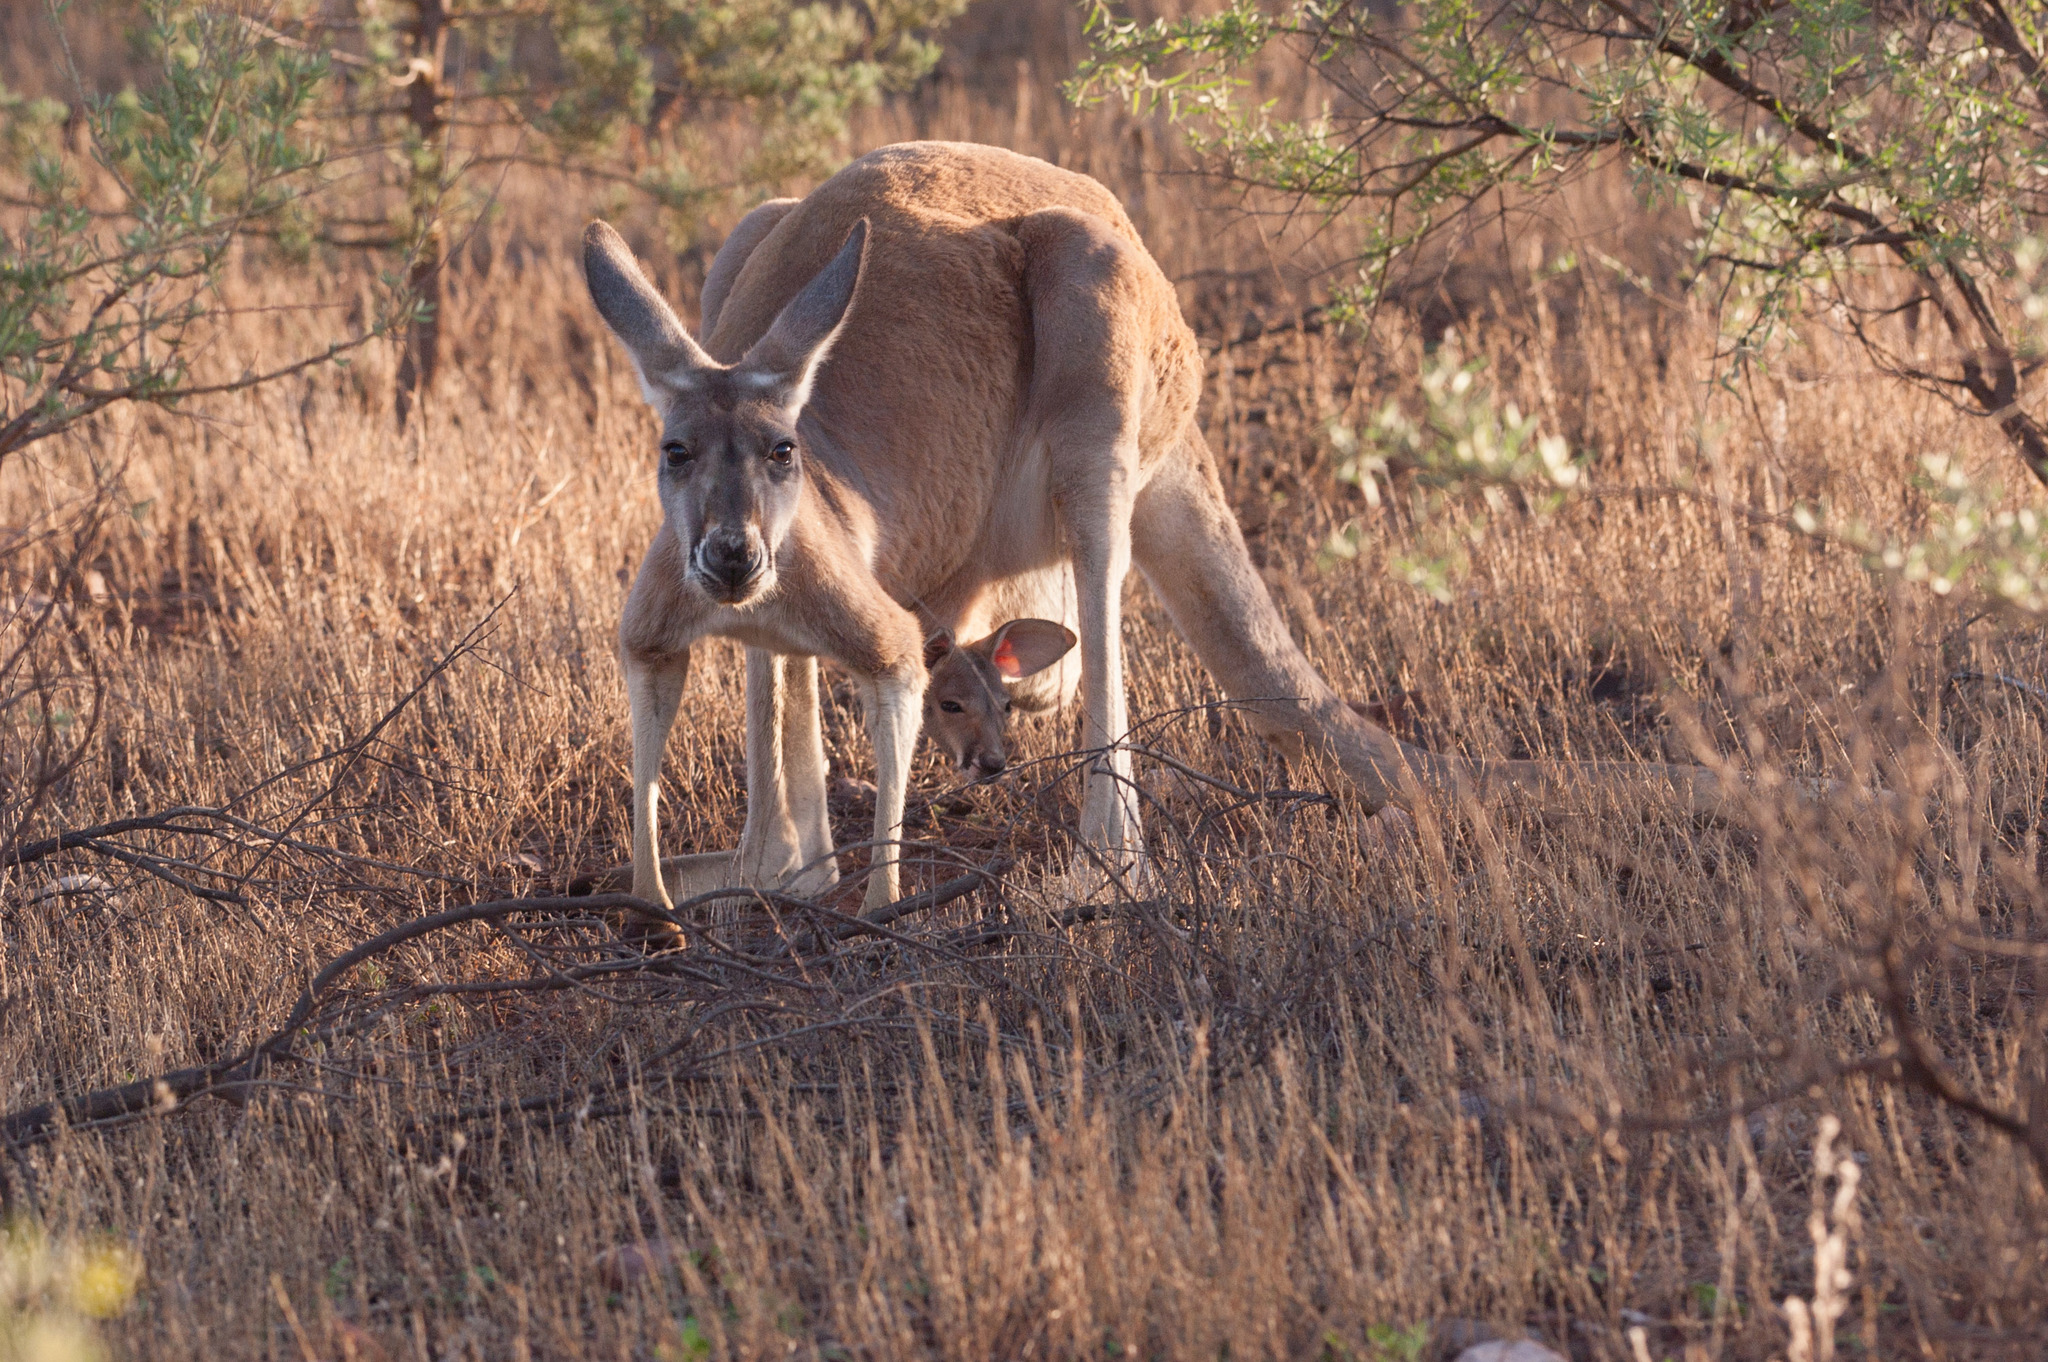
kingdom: Animalia
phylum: Chordata
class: Mammalia
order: Diprotodontia
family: Macropodidae
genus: Macropus
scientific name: Macropus rufus
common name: Red kangaroo
